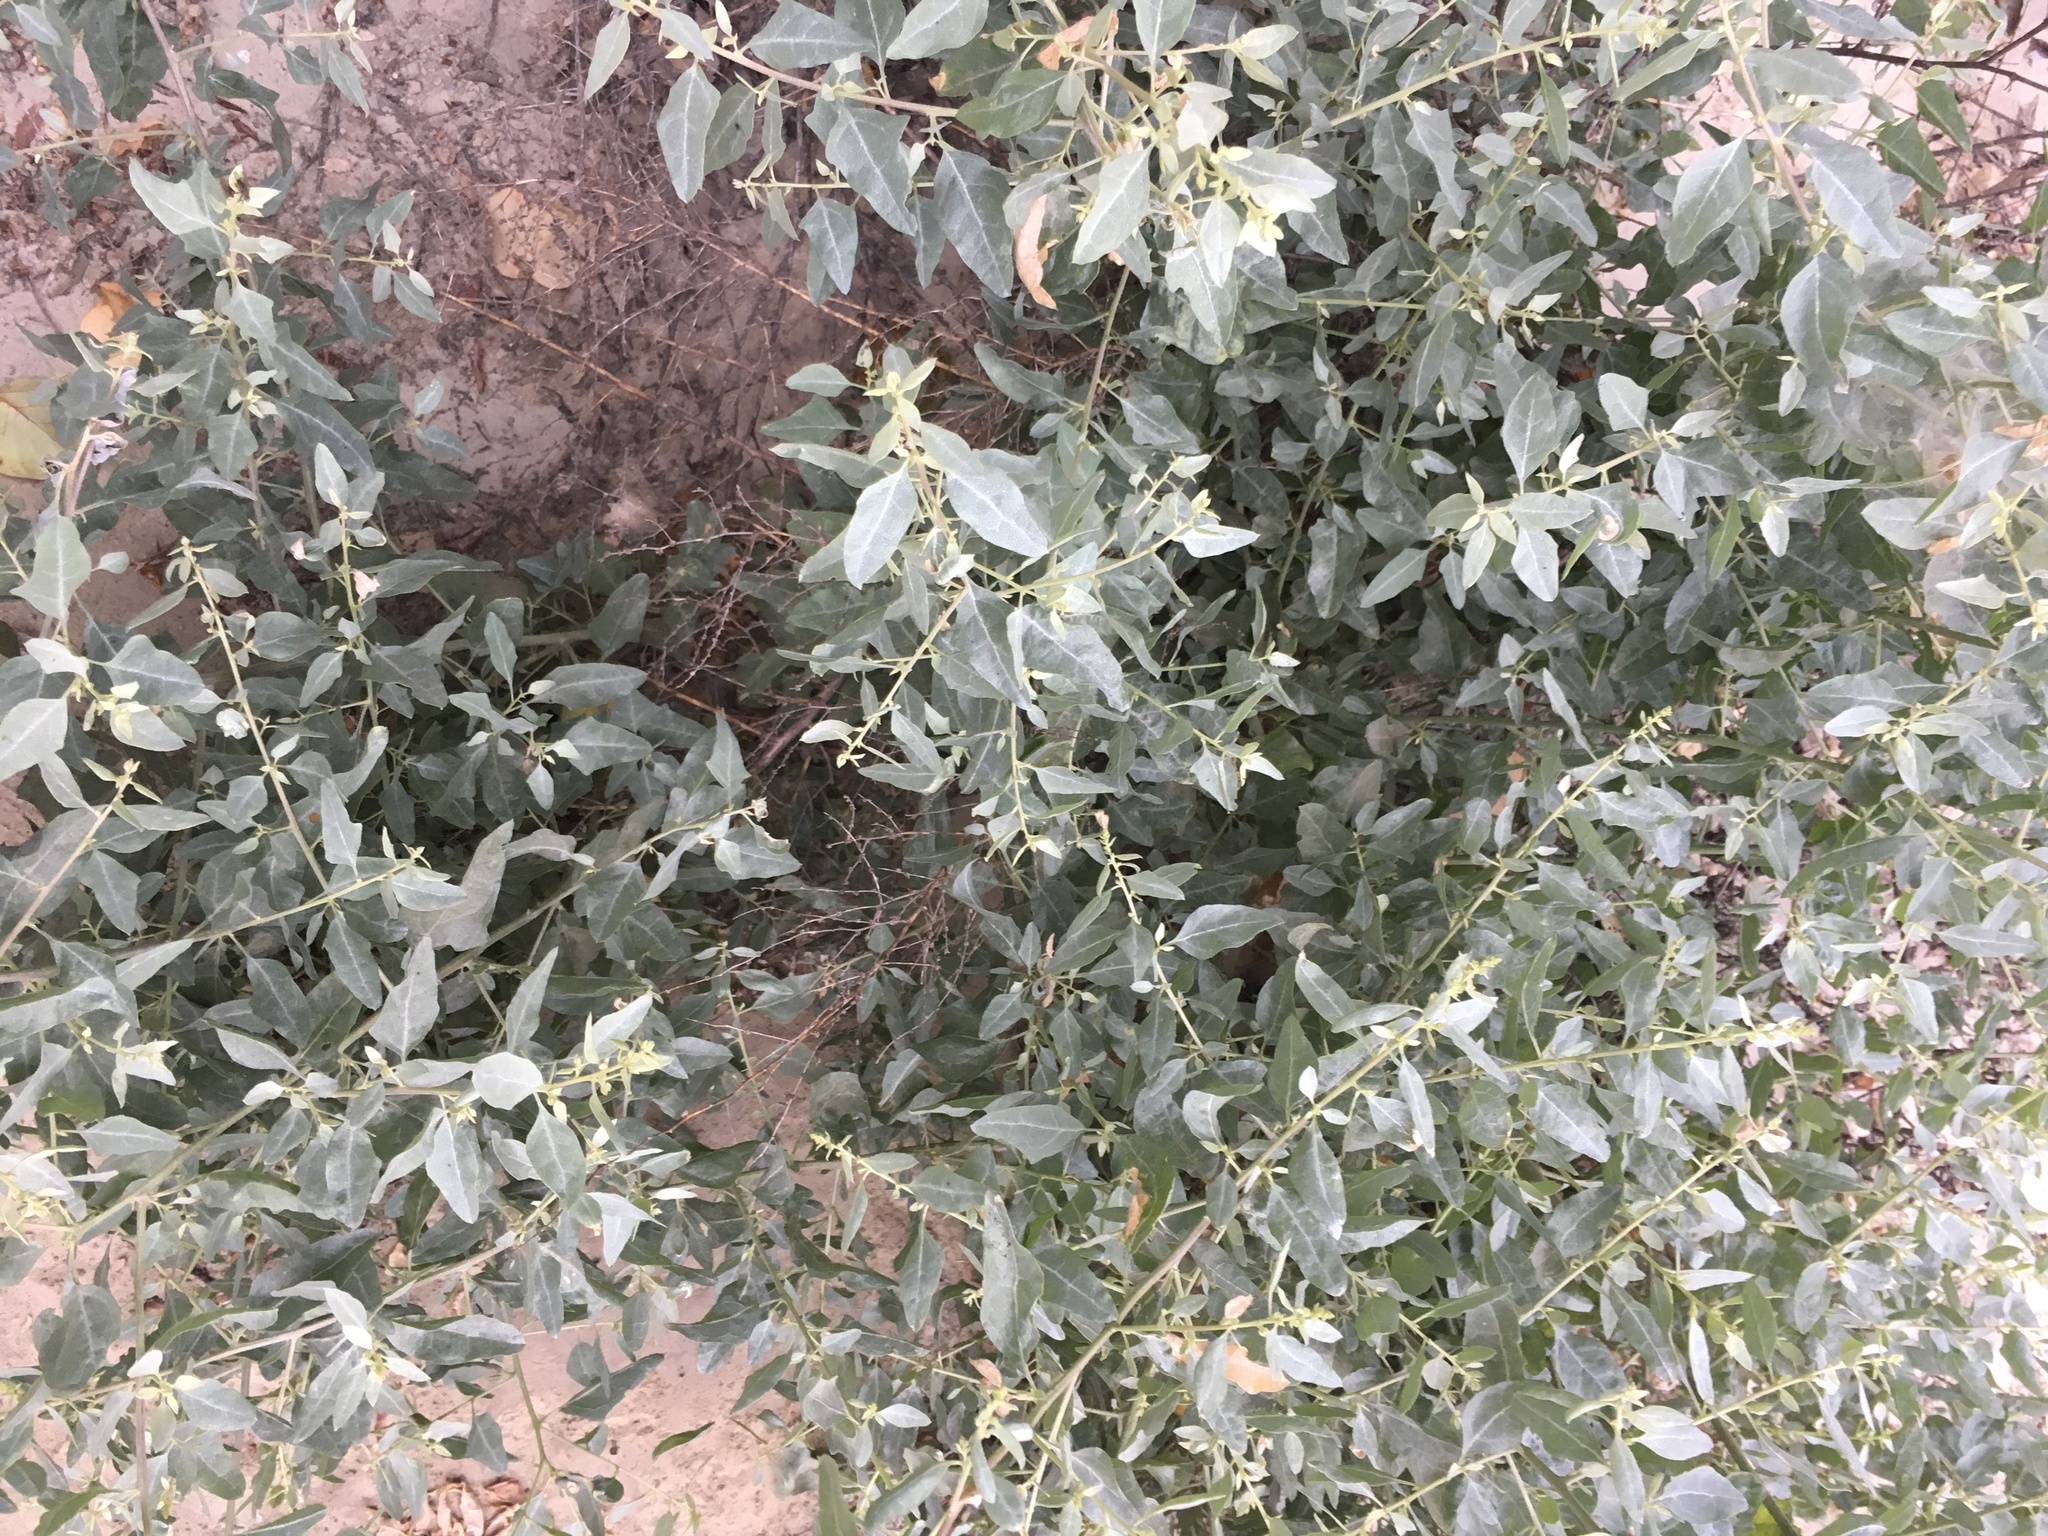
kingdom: Plantae
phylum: Tracheophyta
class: Magnoliopsida
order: Caryophyllales
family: Amaranthaceae
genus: Atriplex
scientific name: Atriplex lentiformis
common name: Big saltbush
